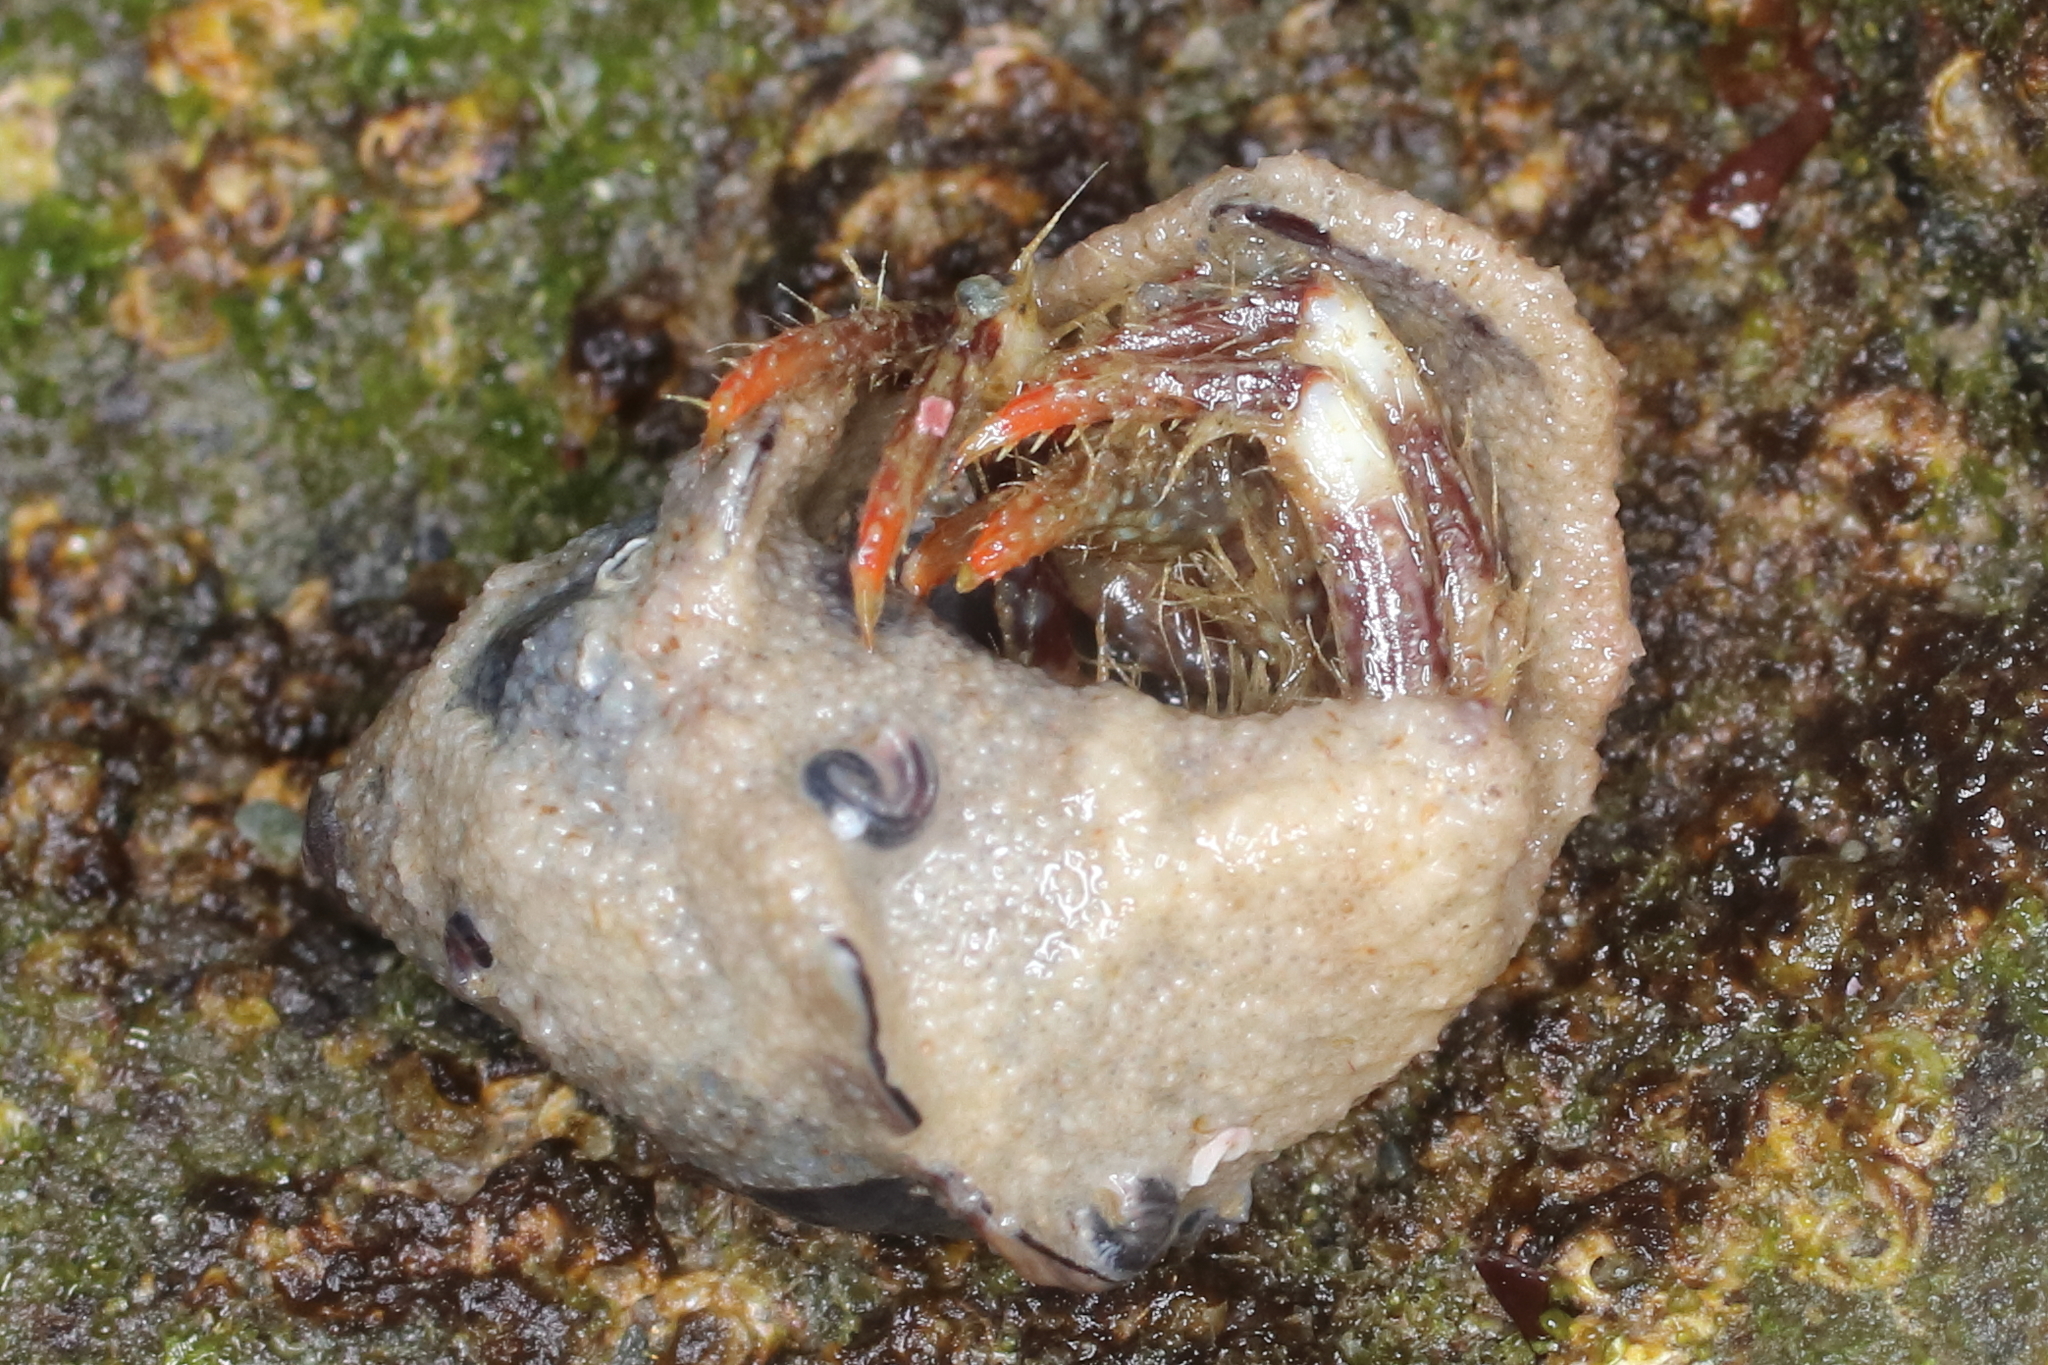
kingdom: Animalia
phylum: Arthropoda
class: Malacostraca
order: Decapoda
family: Paguridae
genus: Pagurus
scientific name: Pagurus caurinus
